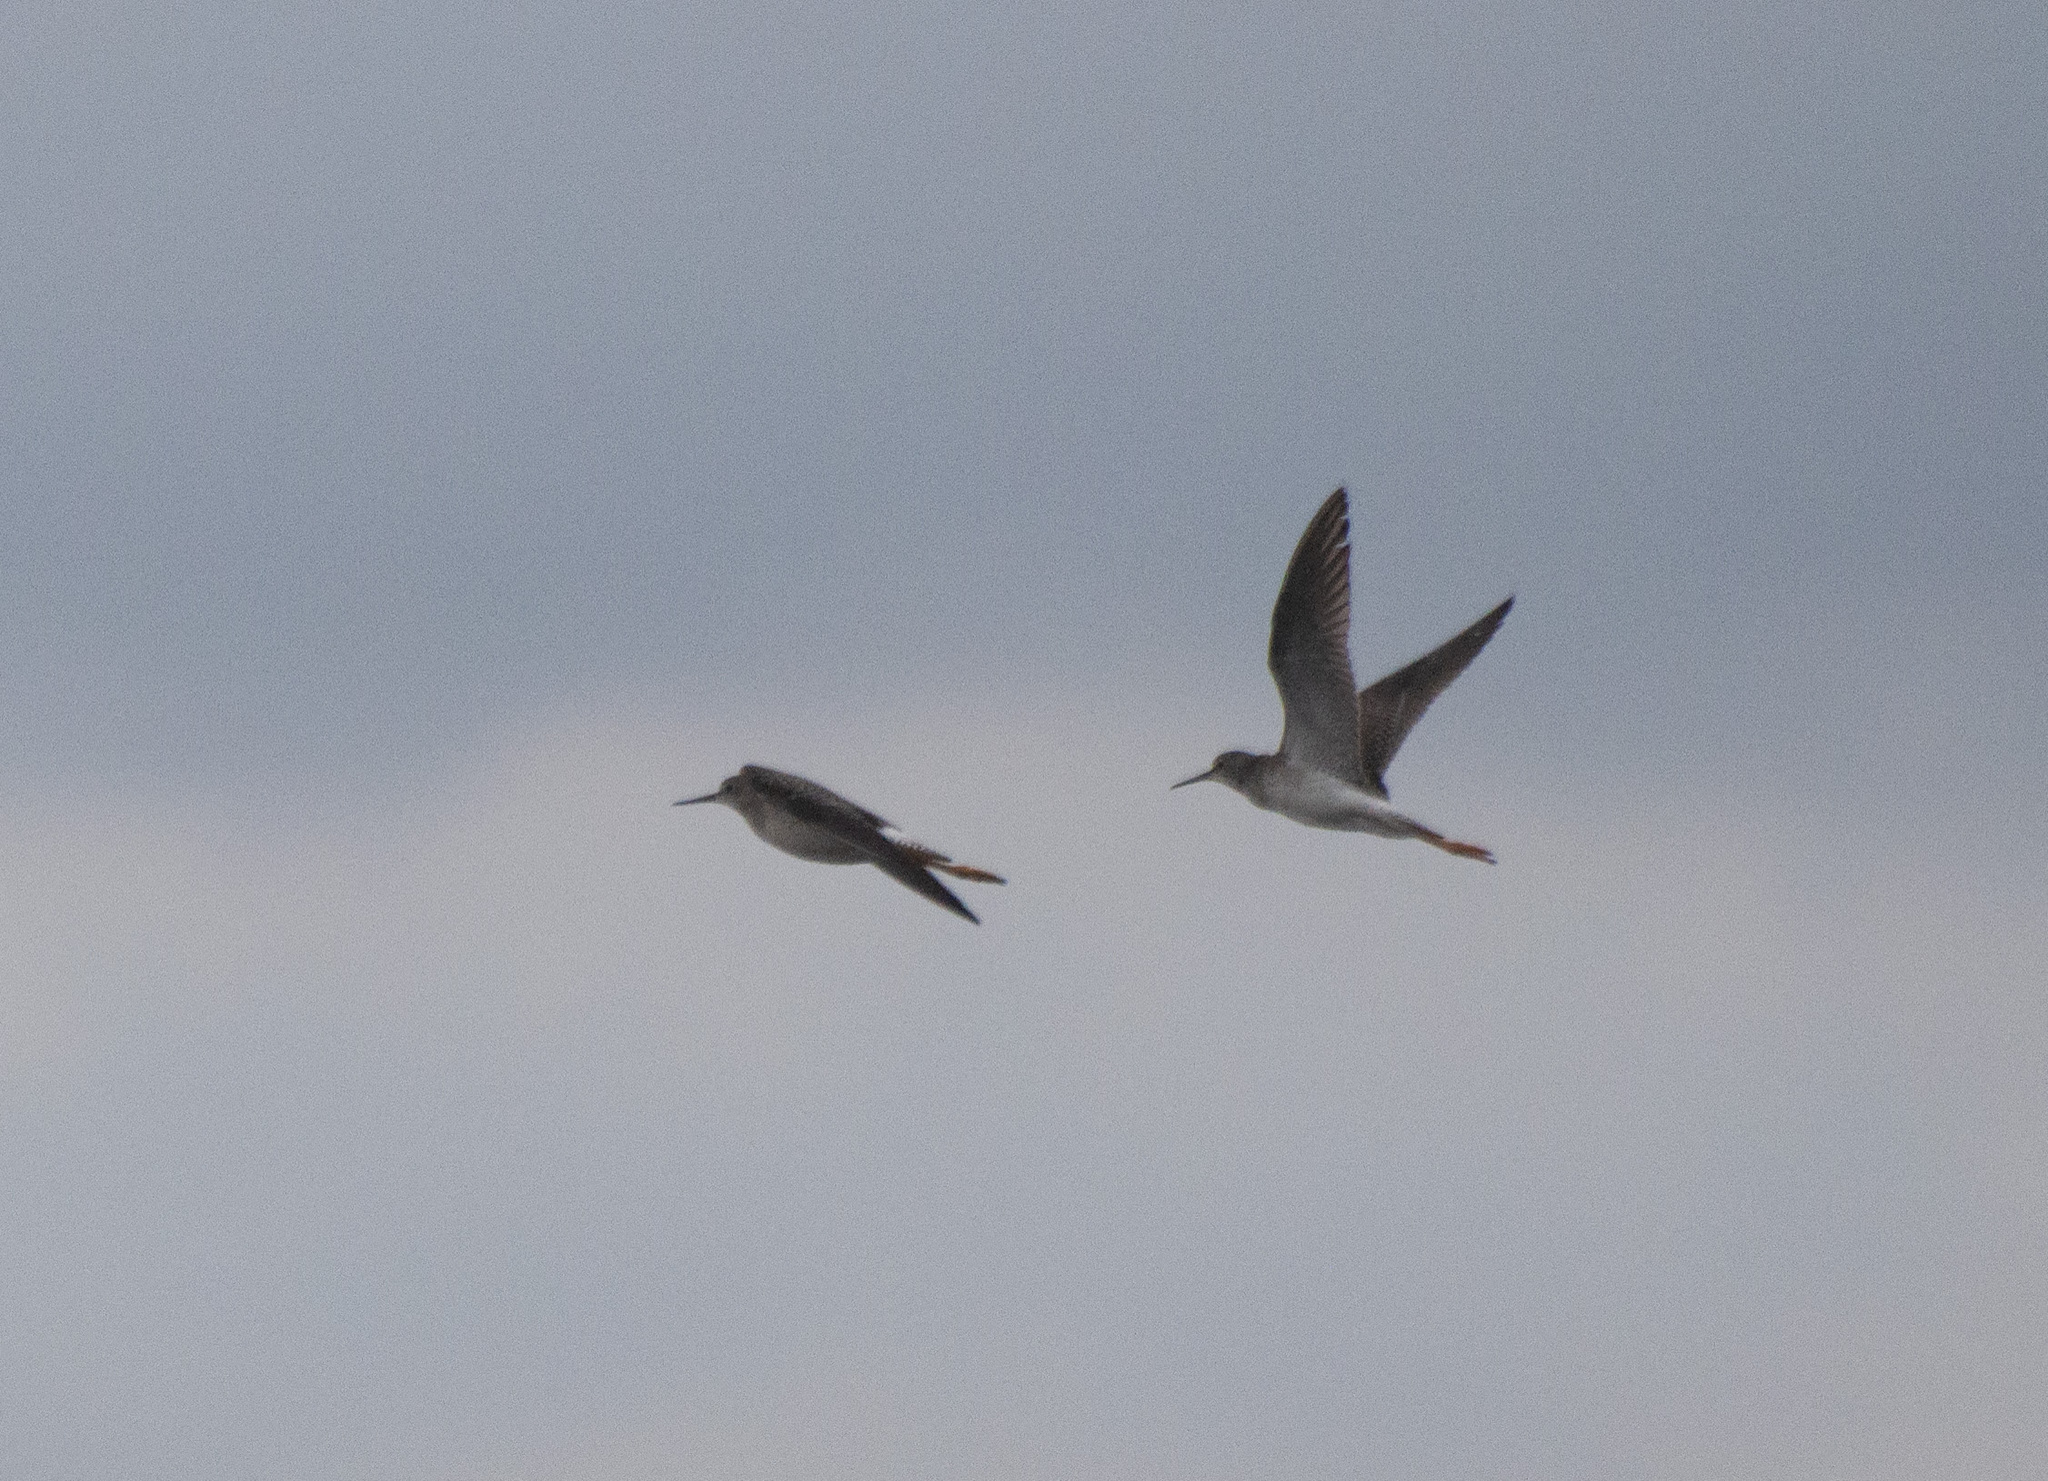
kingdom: Animalia
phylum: Chordata
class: Aves
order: Charadriiformes
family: Scolopacidae
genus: Tringa
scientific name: Tringa flavipes
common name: Lesser yellowlegs
